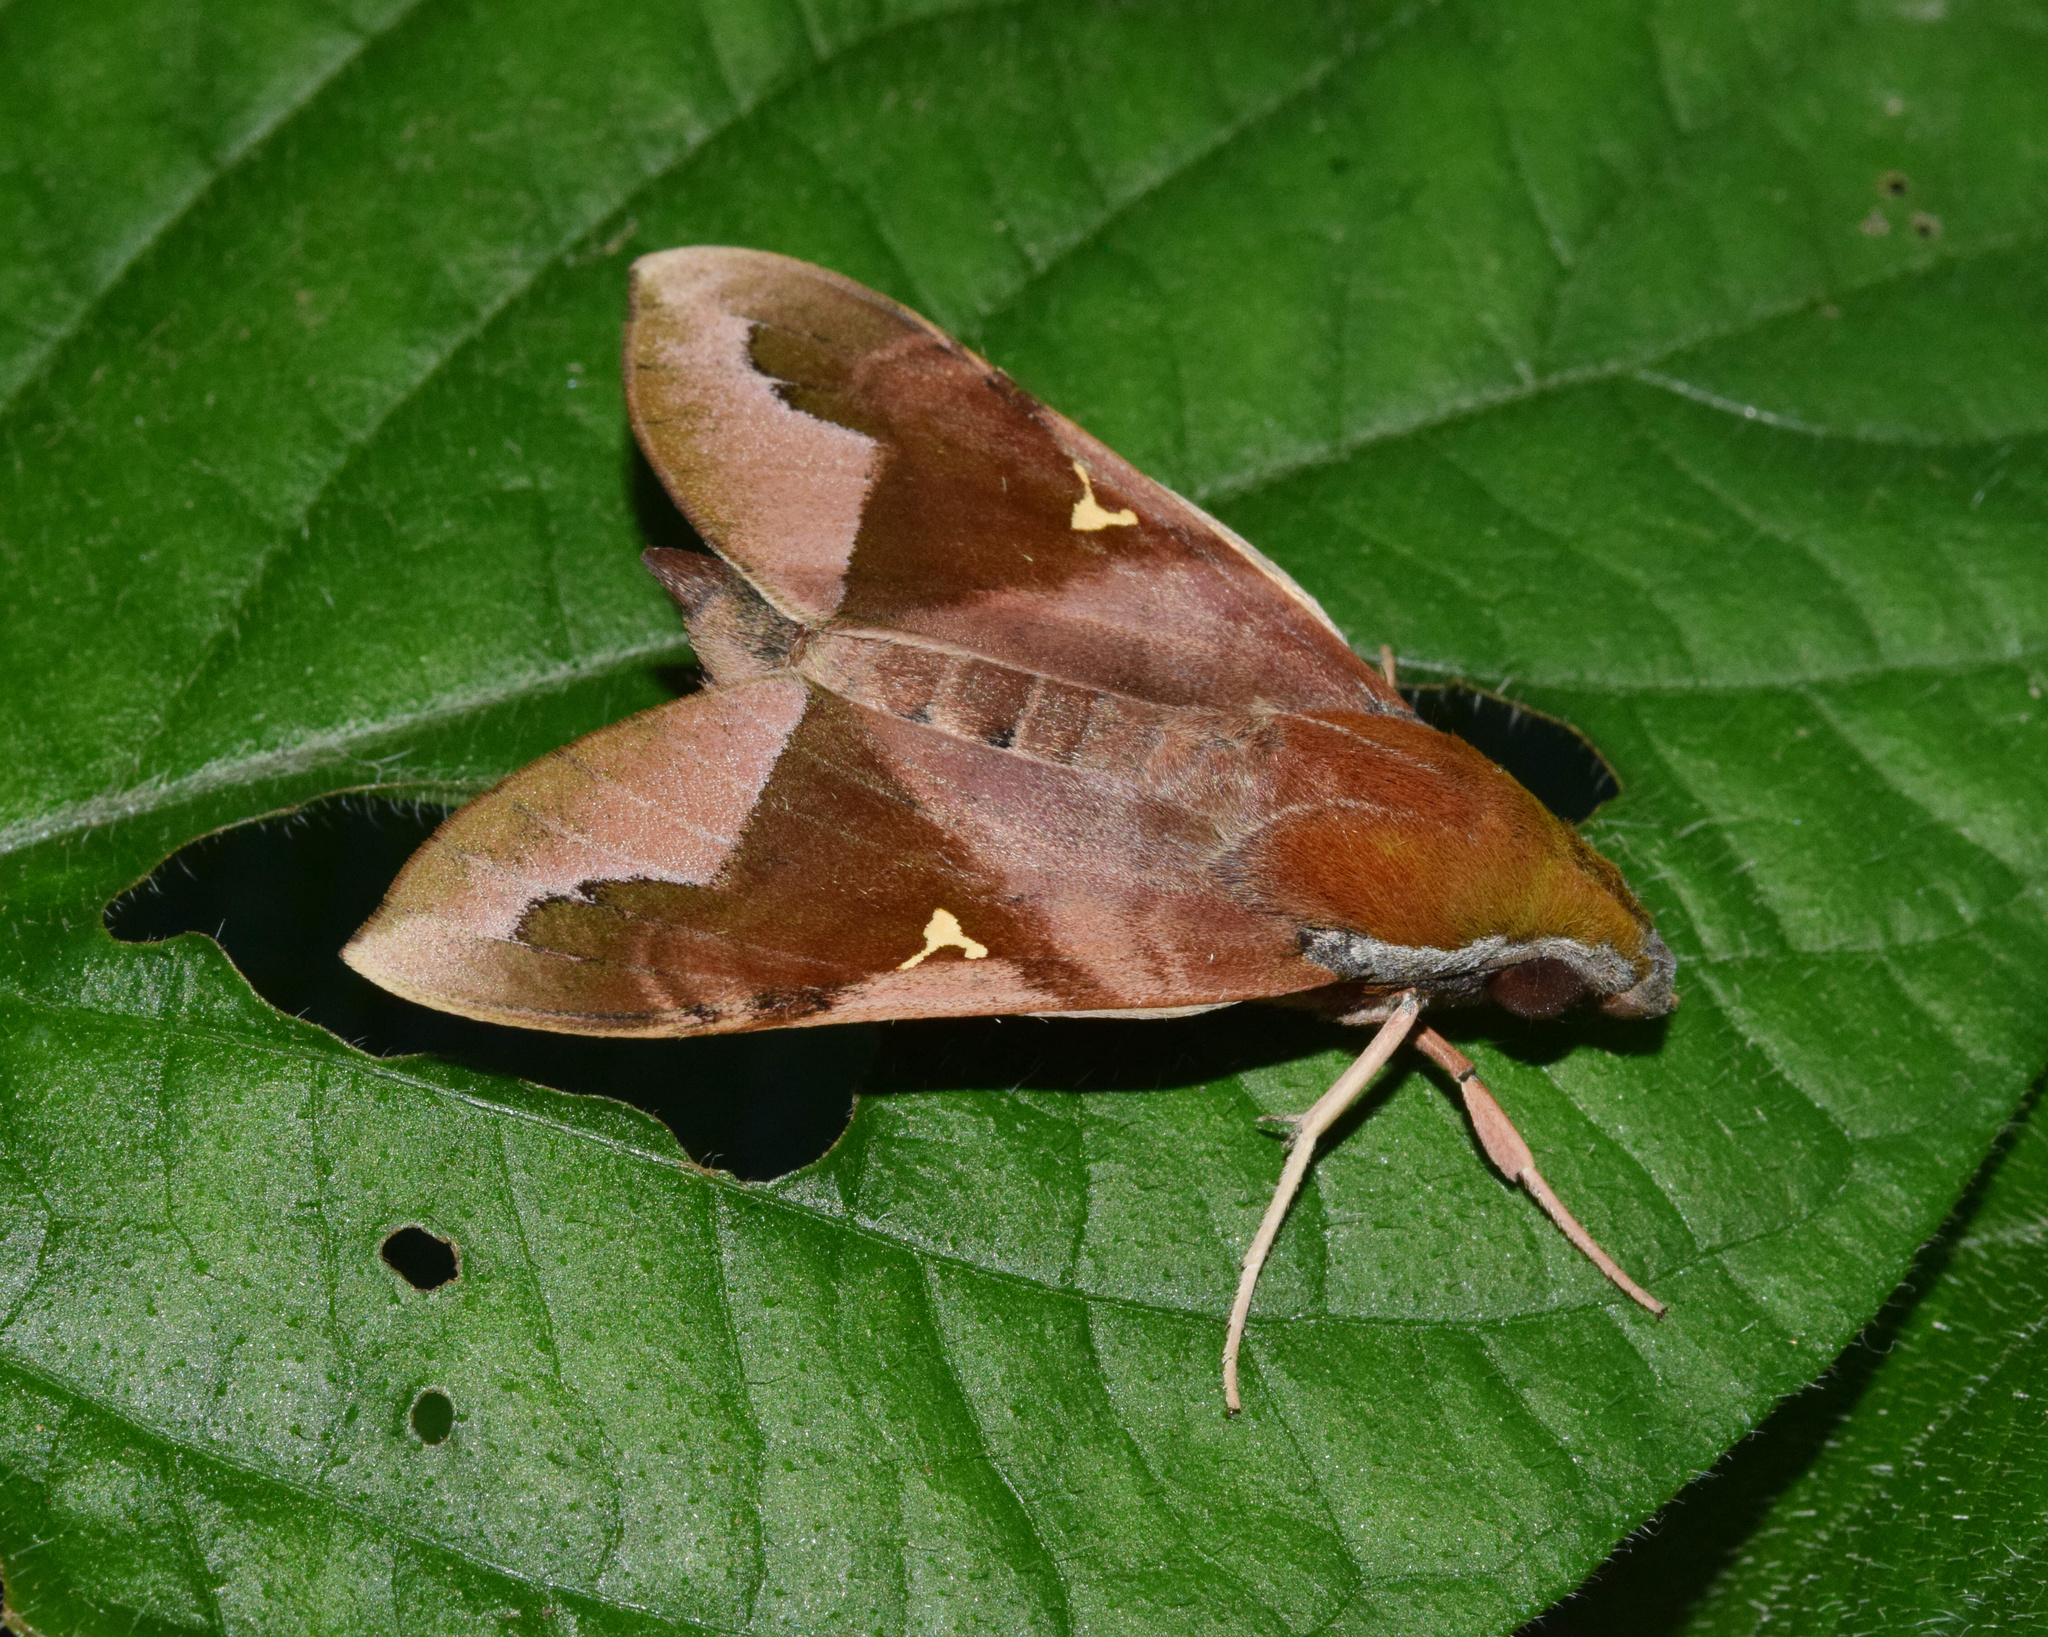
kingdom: Animalia
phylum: Arthropoda
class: Insecta
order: Lepidoptera
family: Sphingidae
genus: Nephele
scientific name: Nephele vau
